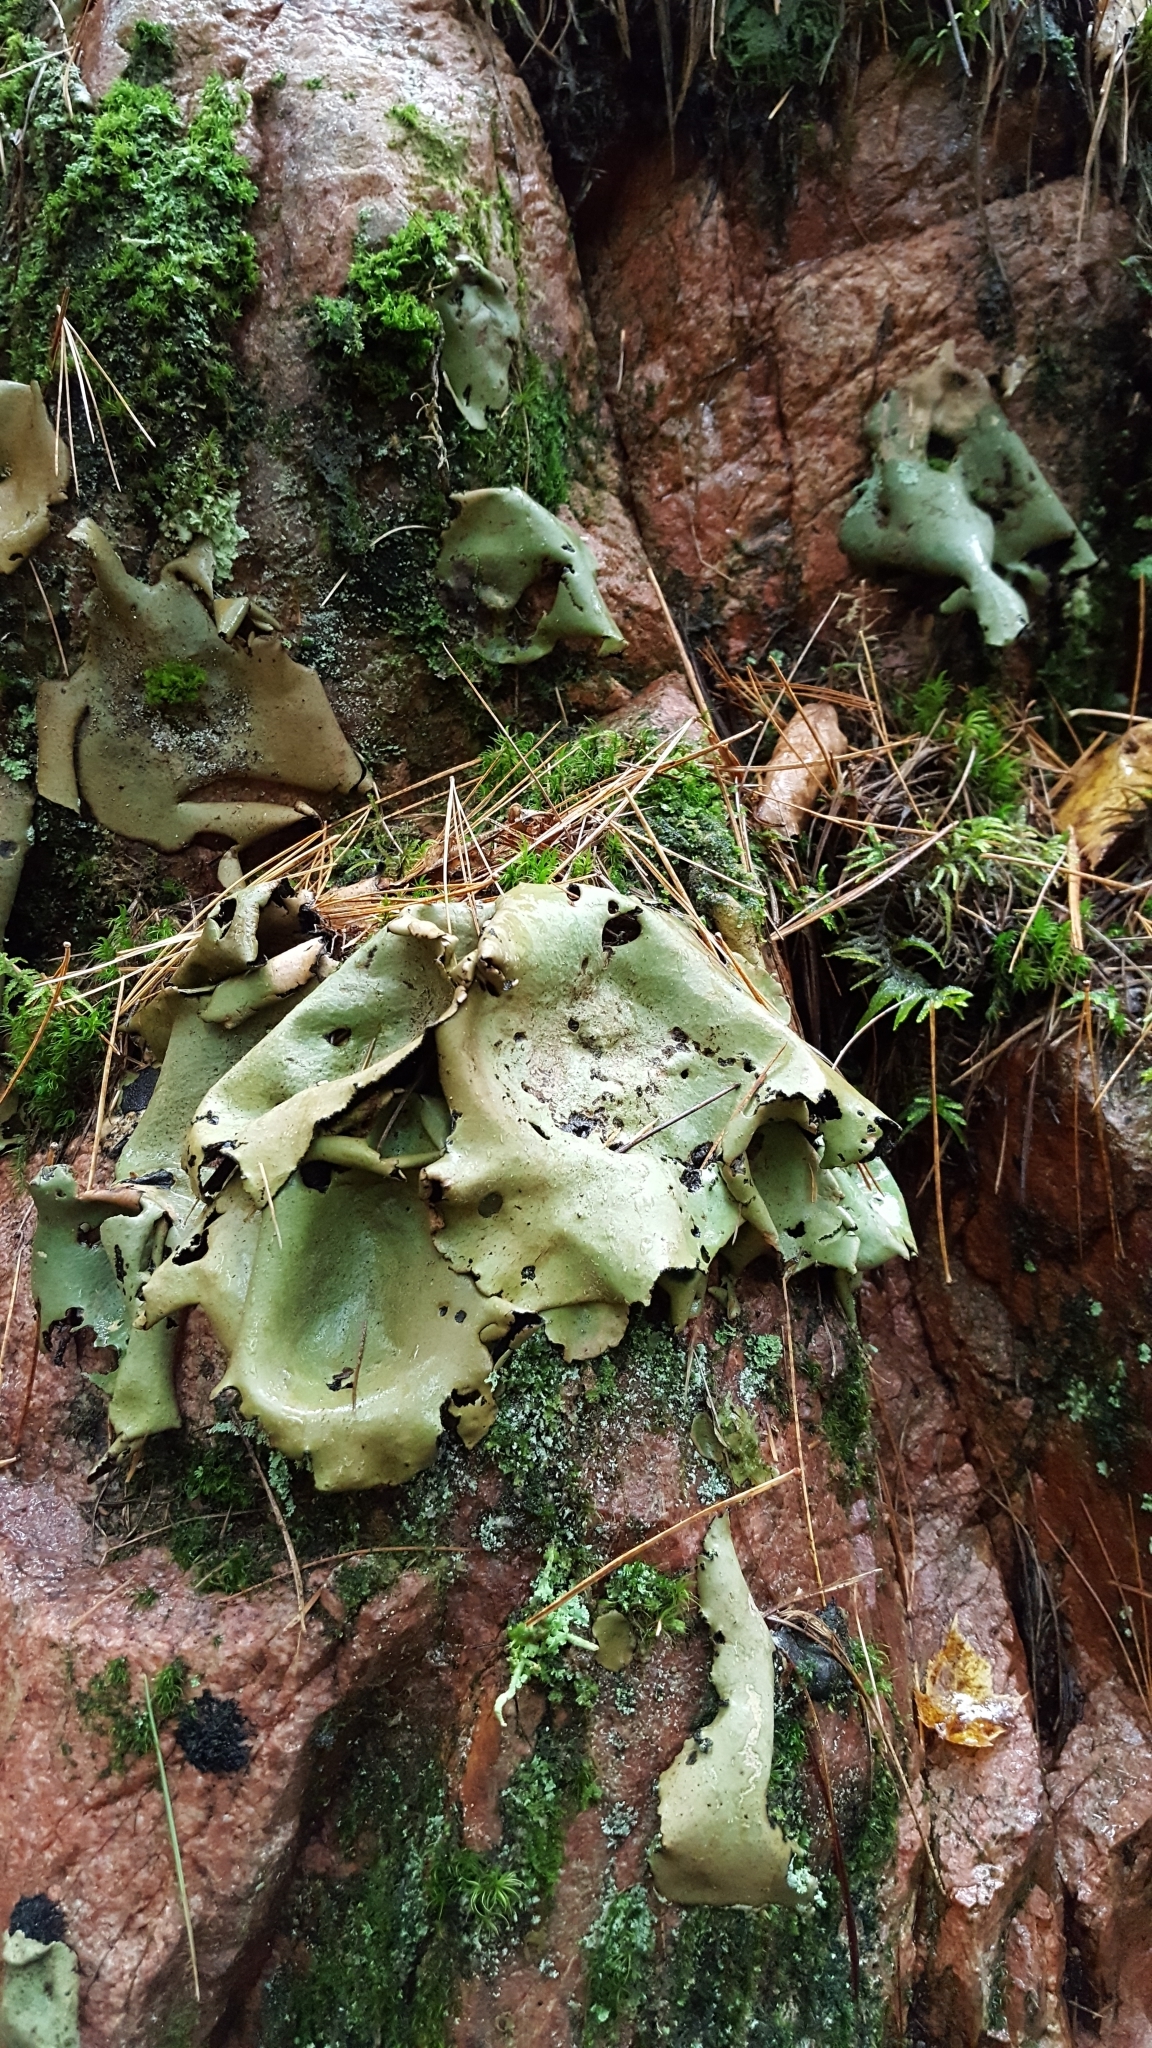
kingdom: Fungi
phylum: Ascomycota
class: Lecanoromycetes
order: Umbilicariales
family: Umbilicariaceae
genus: Umbilicaria
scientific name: Umbilicaria mammulata
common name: Smooth rock tripe
